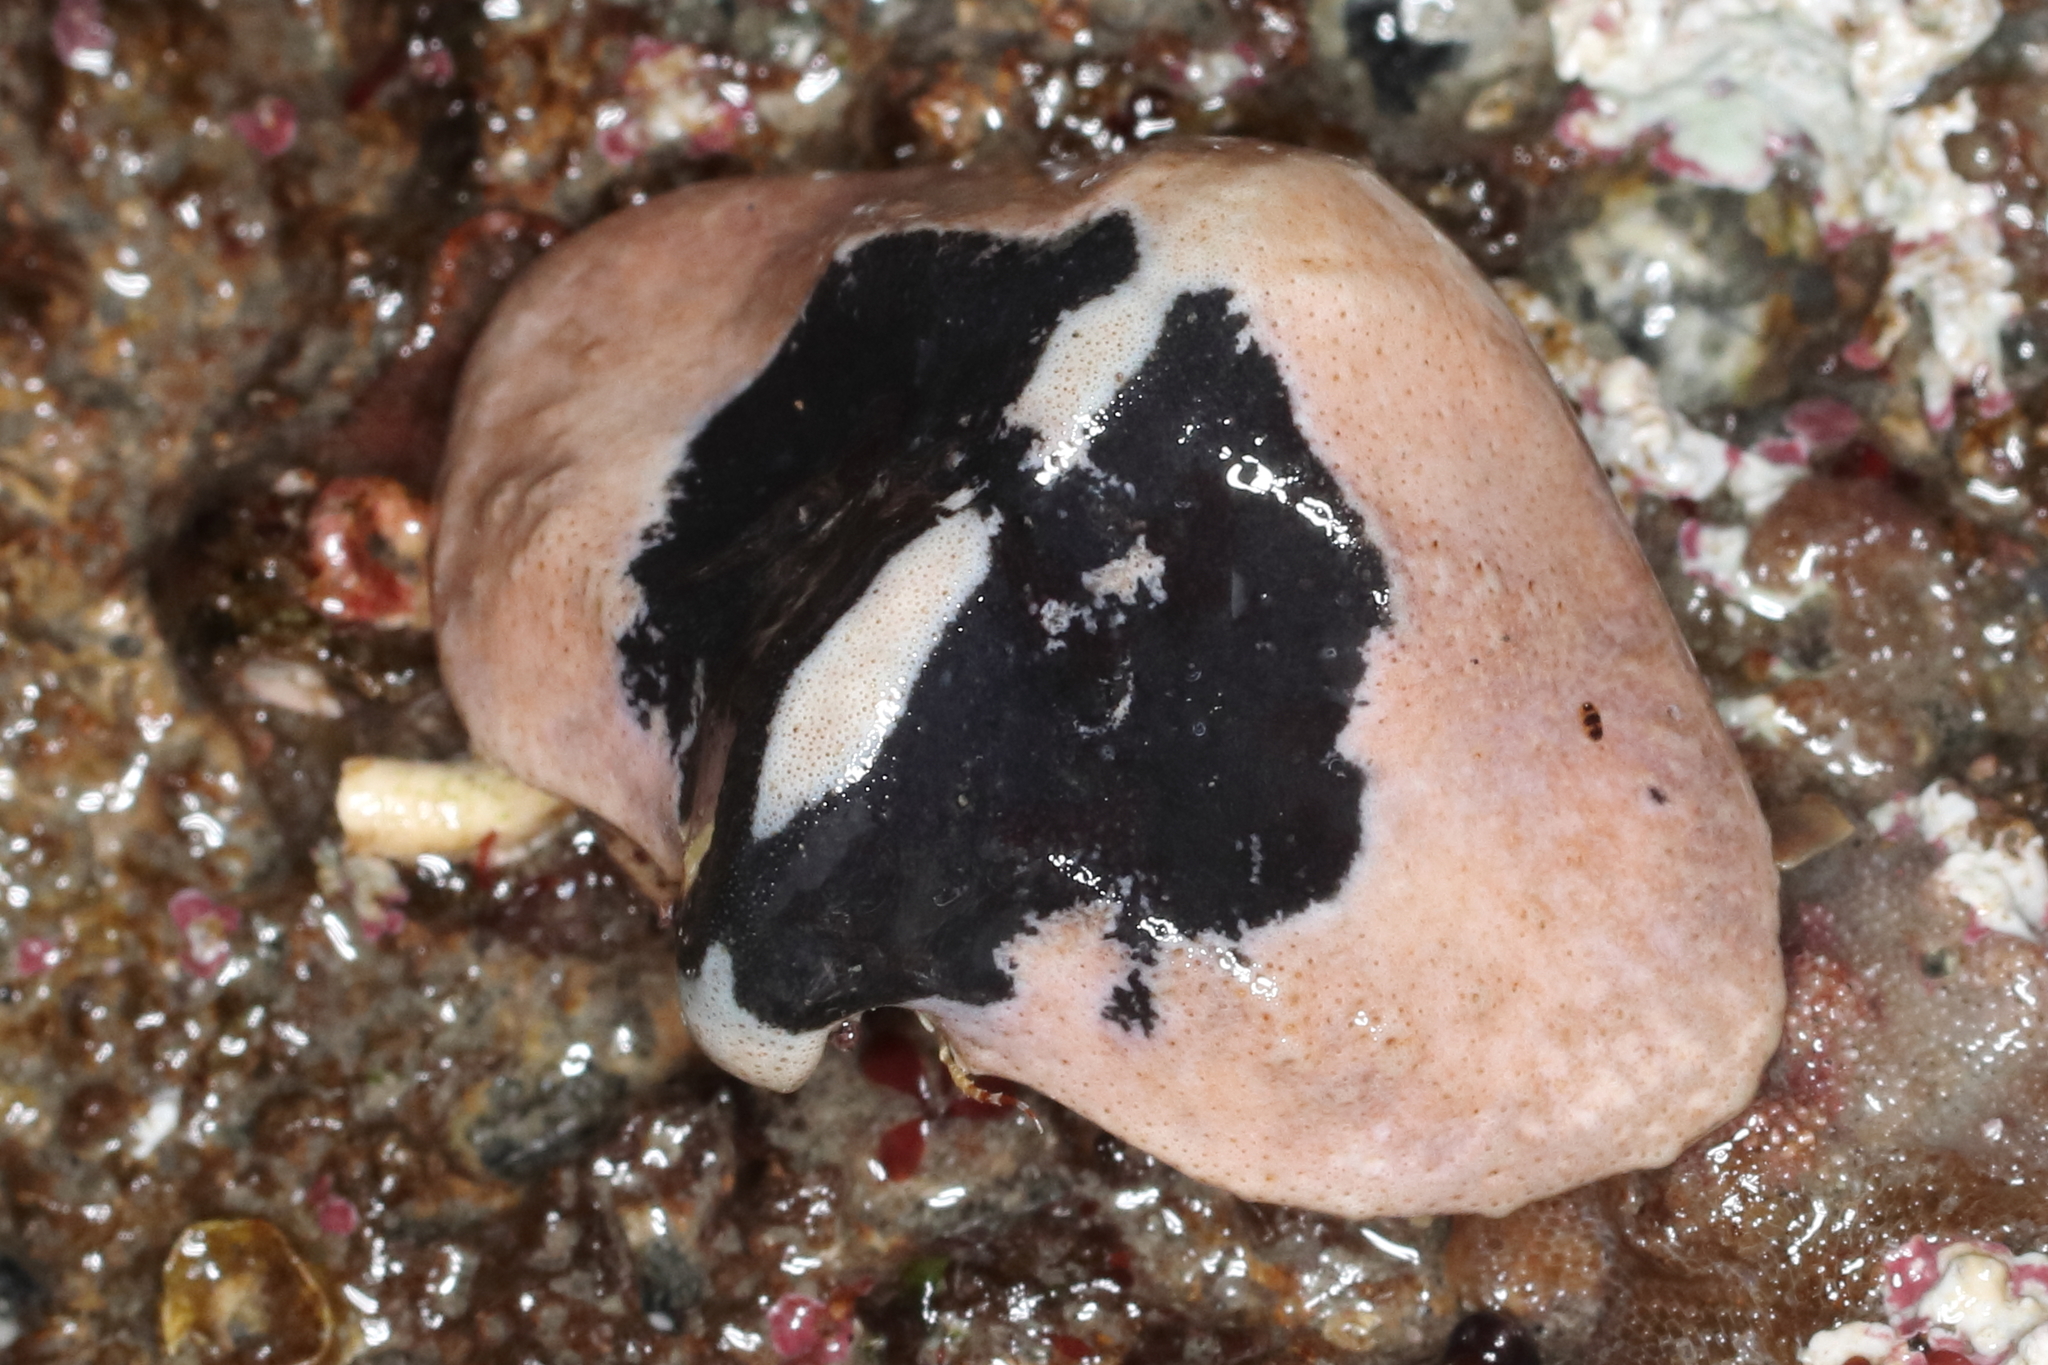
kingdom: Animalia
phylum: Arthropoda
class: Malacostraca
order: Decapoda
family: Lithodidae
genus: Cryptolithodes
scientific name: Cryptolithodes typicus
